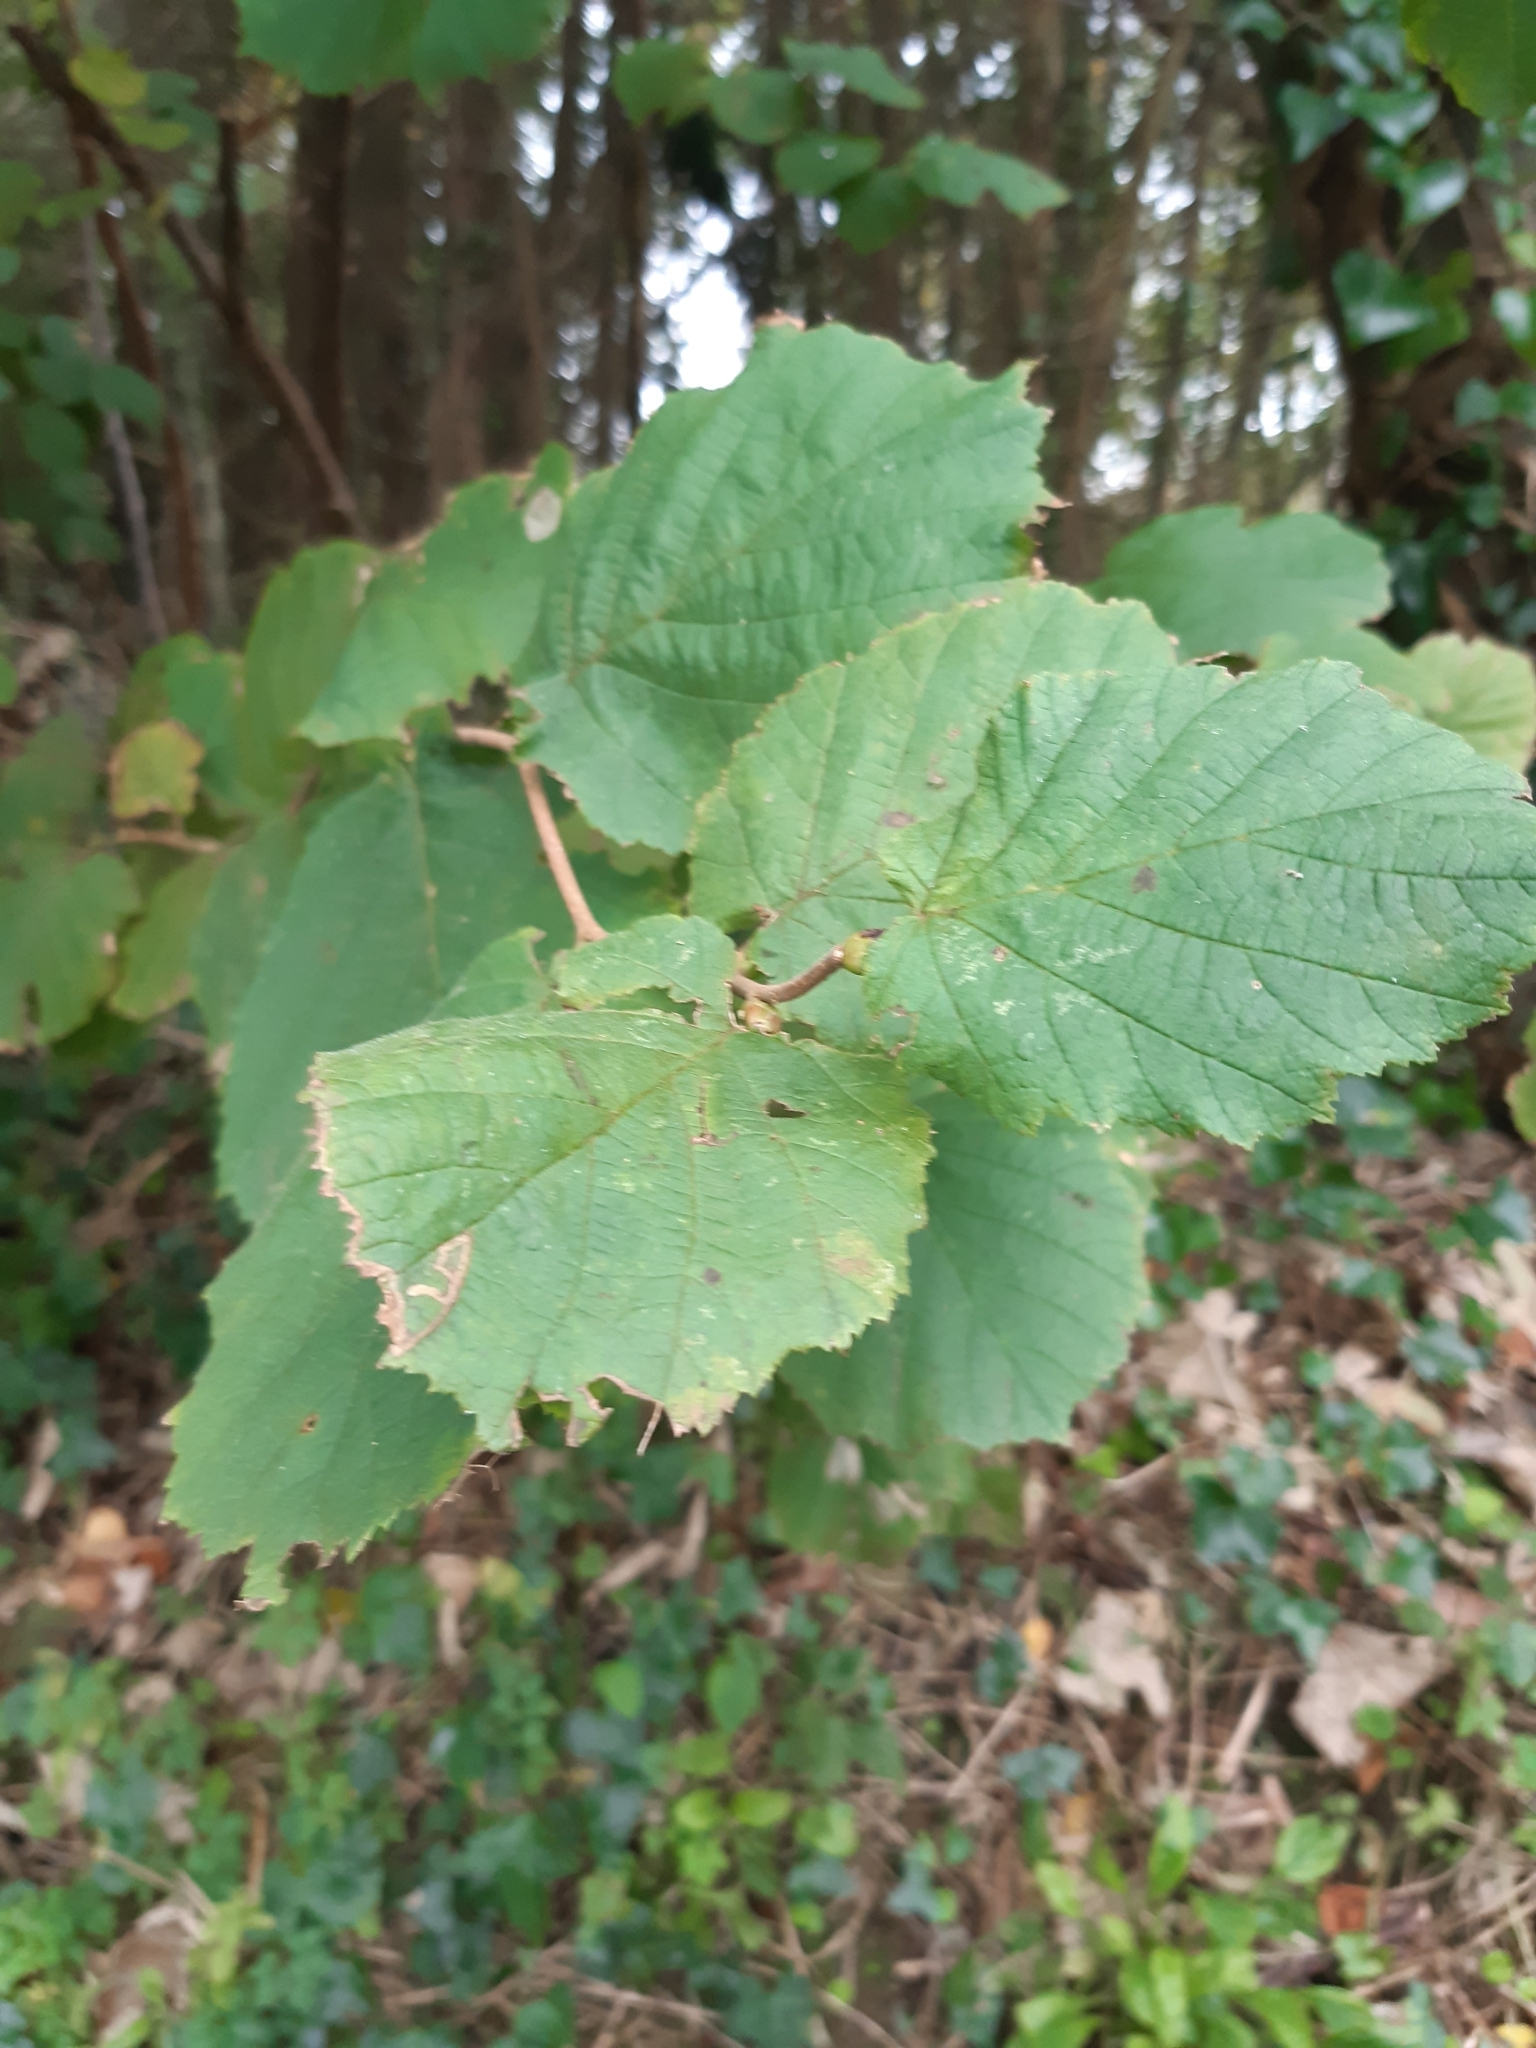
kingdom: Plantae
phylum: Tracheophyta
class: Magnoliopsida
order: Fagales
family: Betulaceae
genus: Corylus
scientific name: Corylus avellana
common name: European hazel
